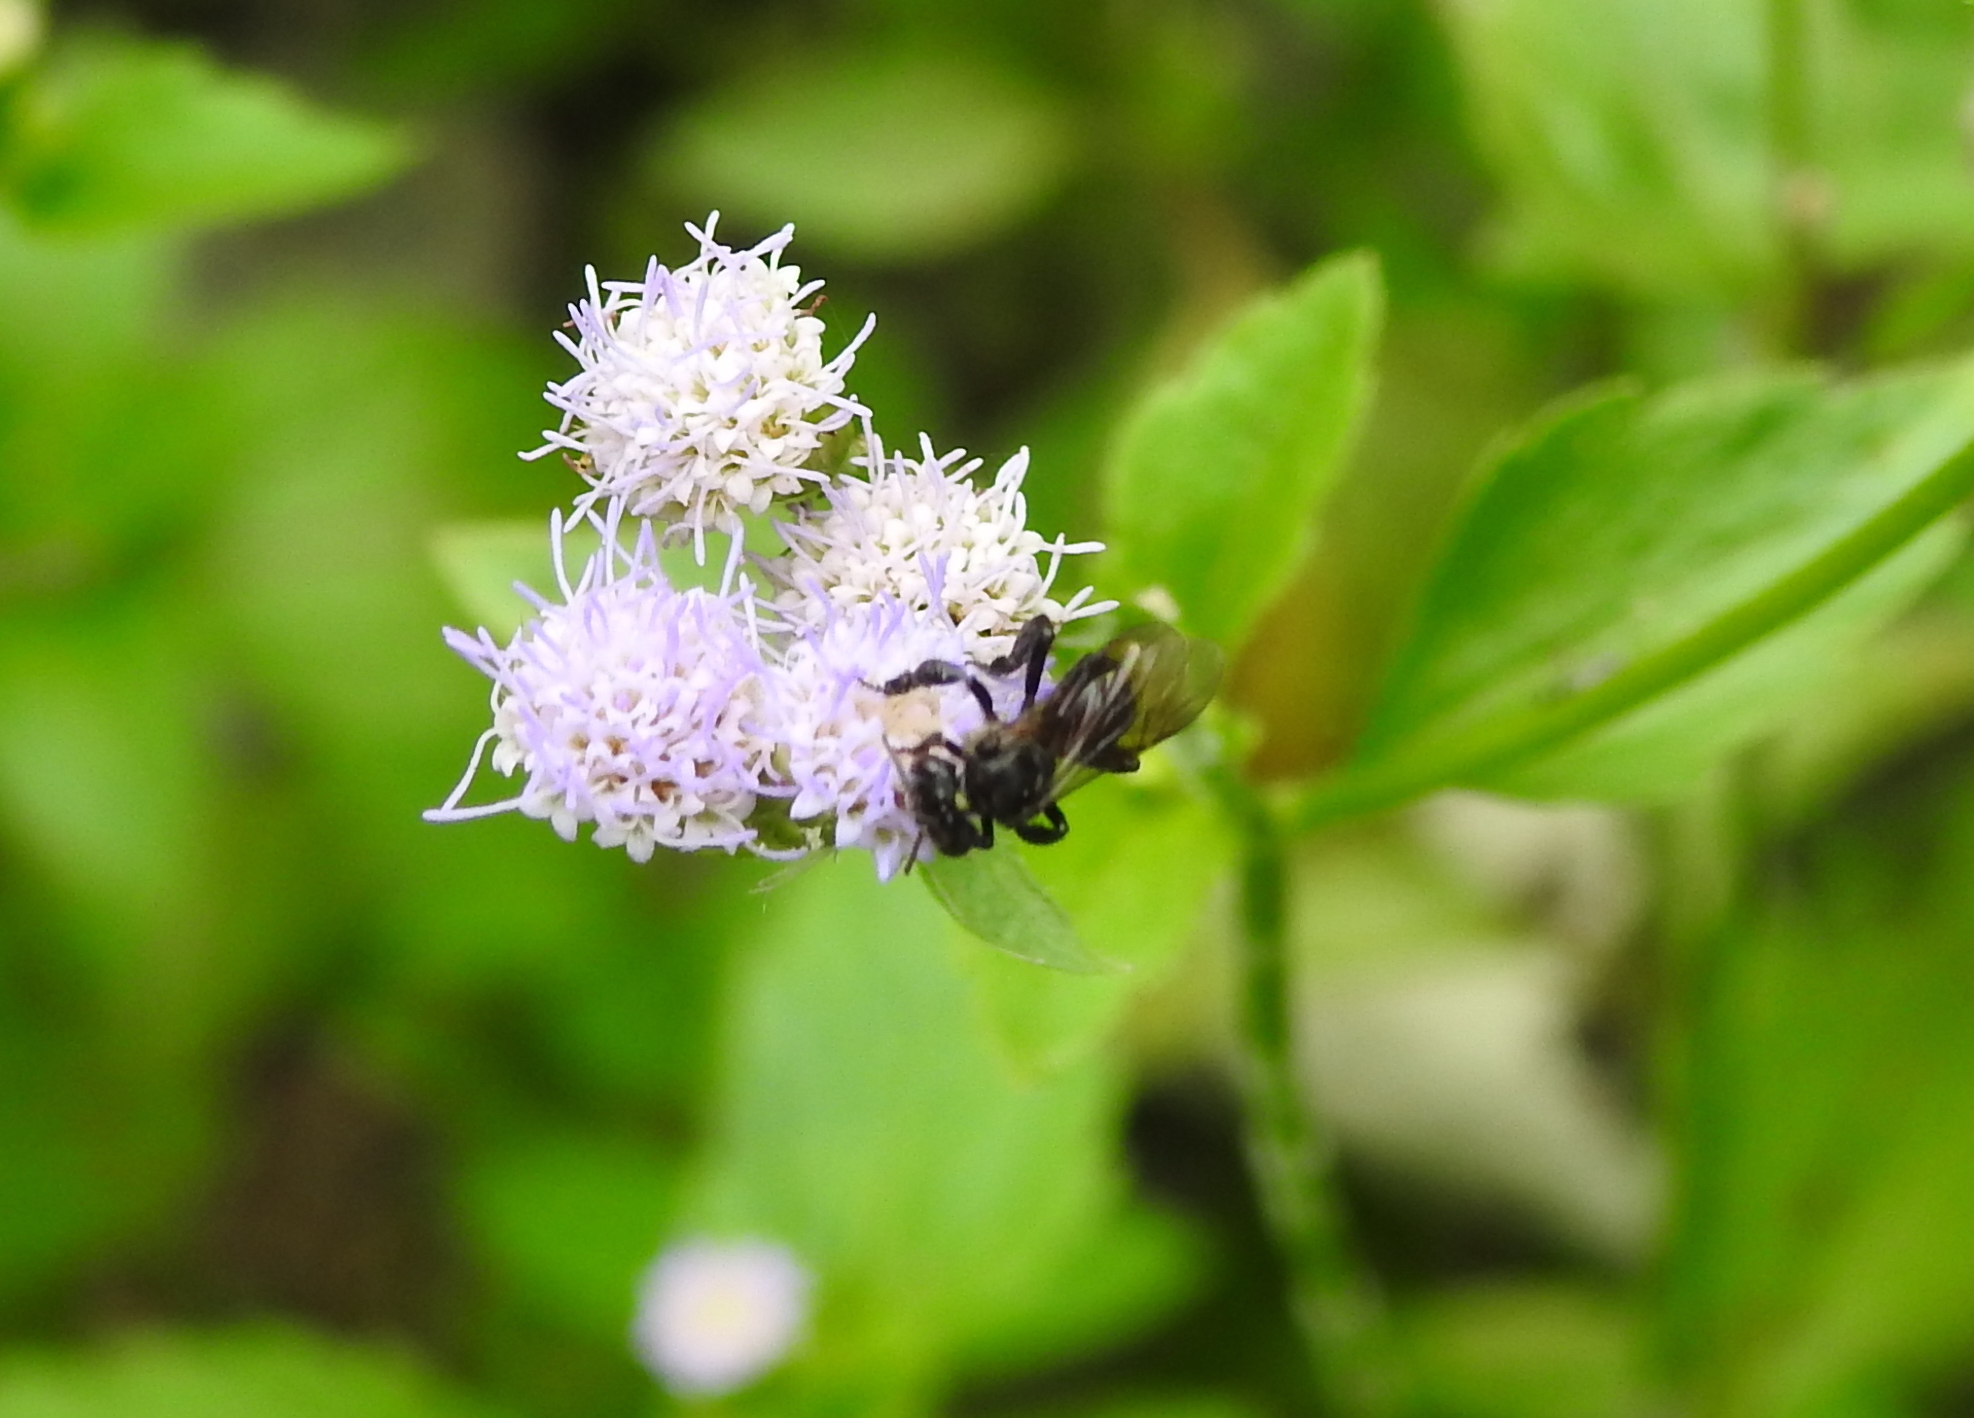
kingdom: Animalia
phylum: Arthropoda
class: Insecta
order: Hymenoptera
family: Apidae
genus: Heterotrigona
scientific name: Heterotrigona itama
